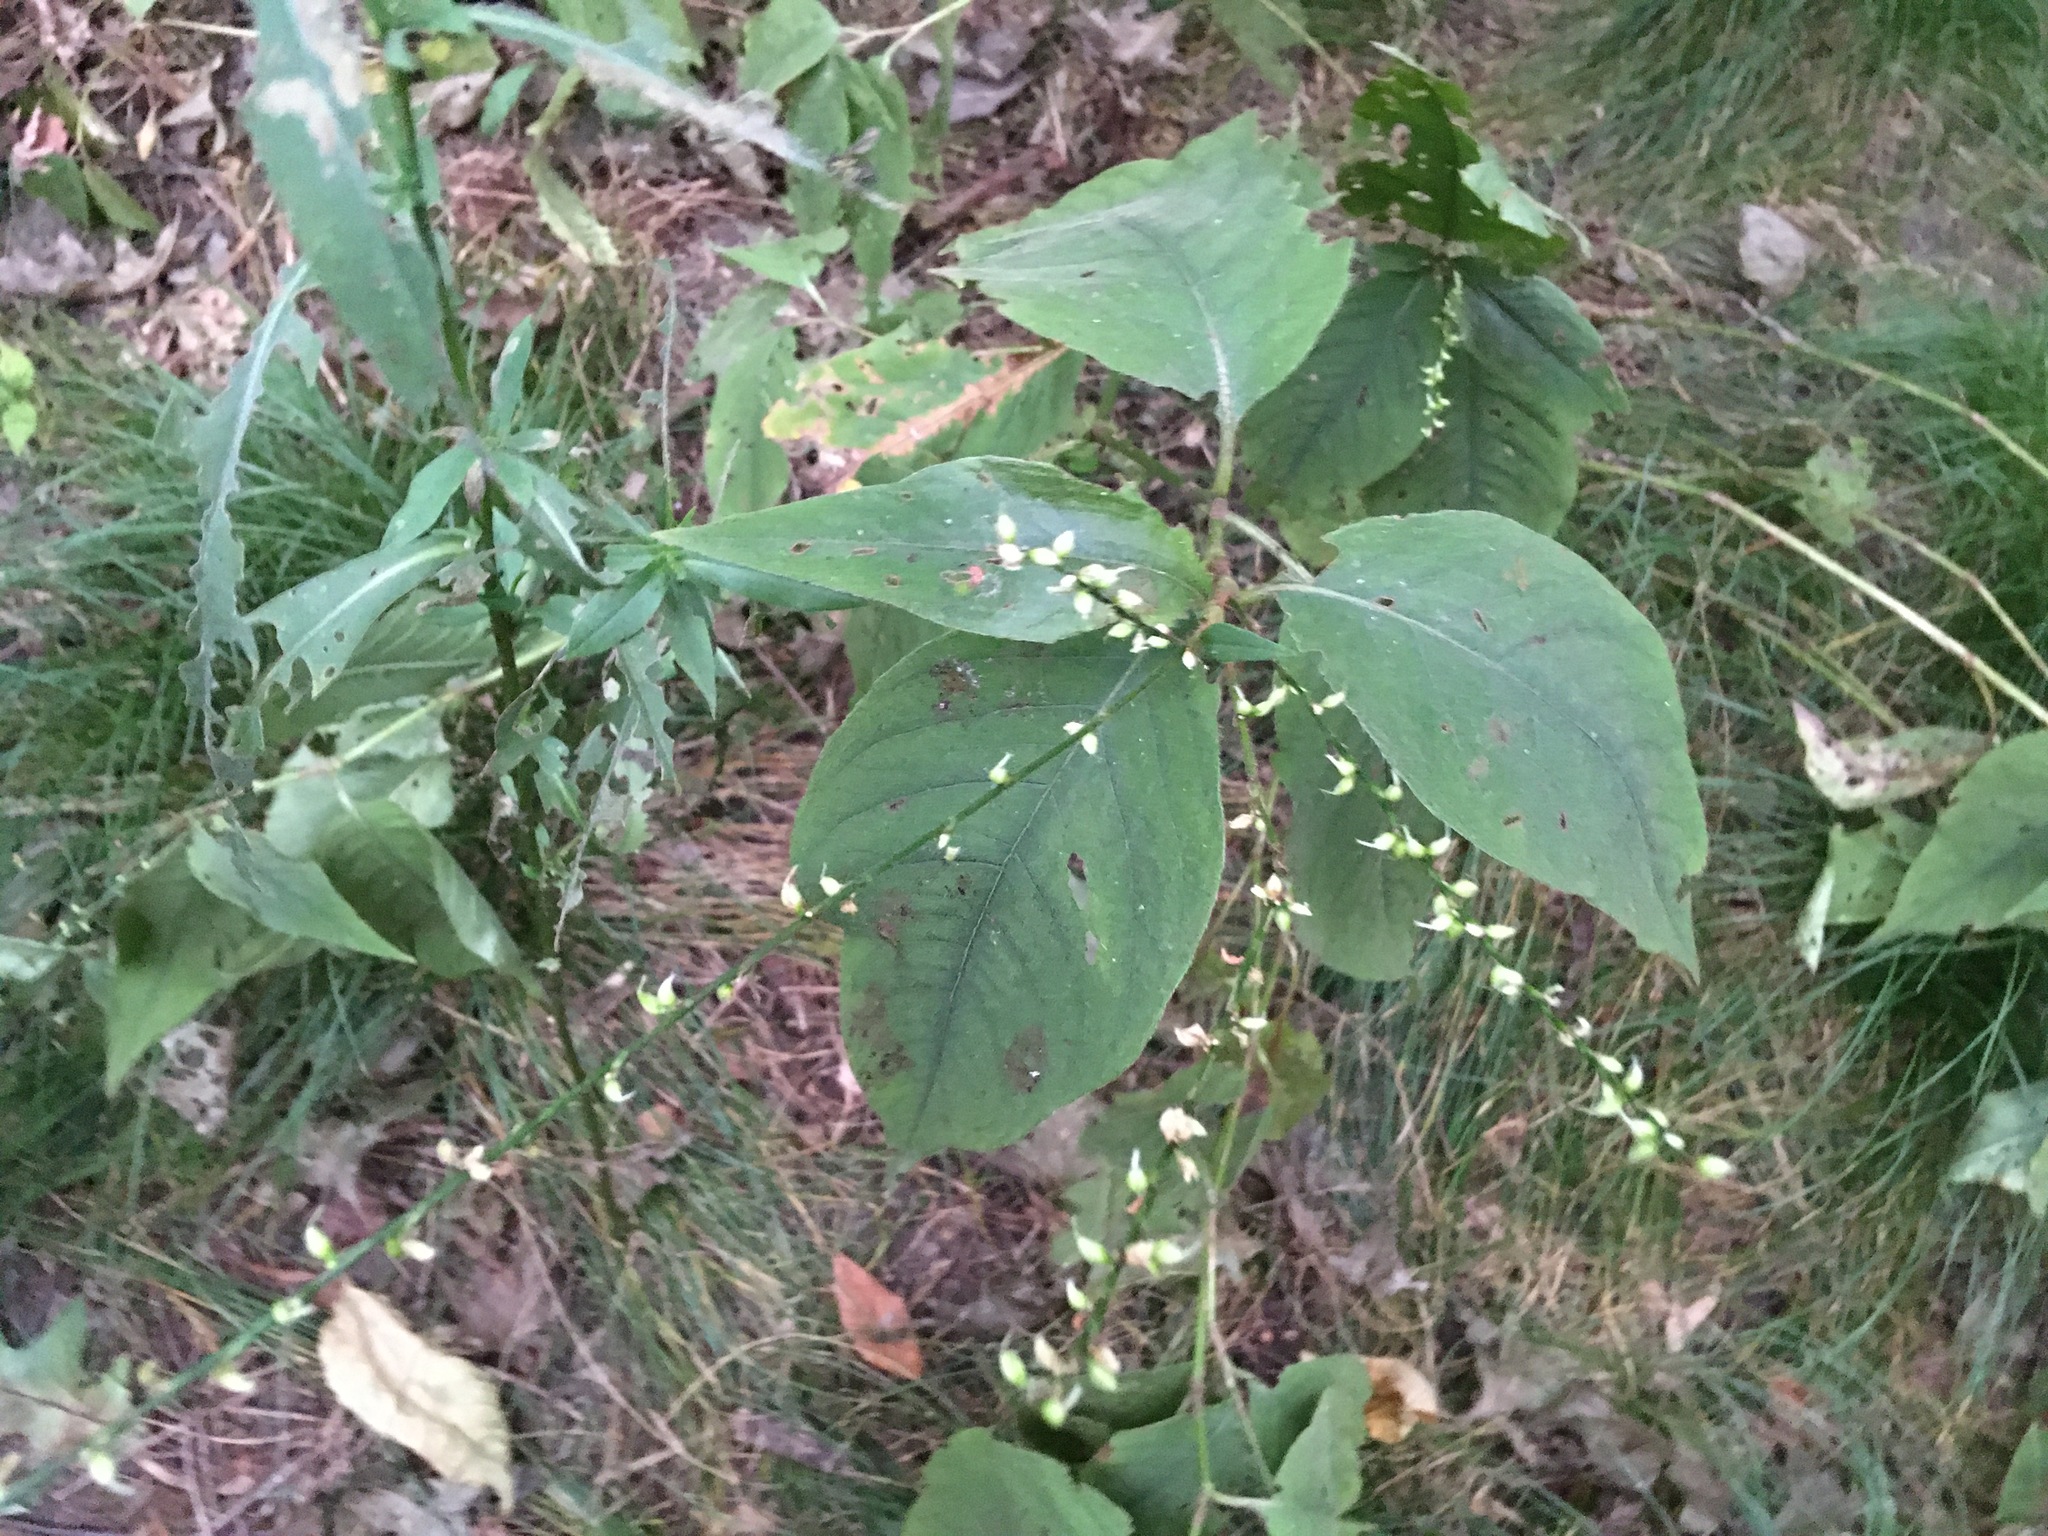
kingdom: Plantae
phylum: Tracheophyta
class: Magnoliopsida
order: Caryophyllales
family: Polygonaceae
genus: Persicaria
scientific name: Persicaria virginiana
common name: Jumpseed
